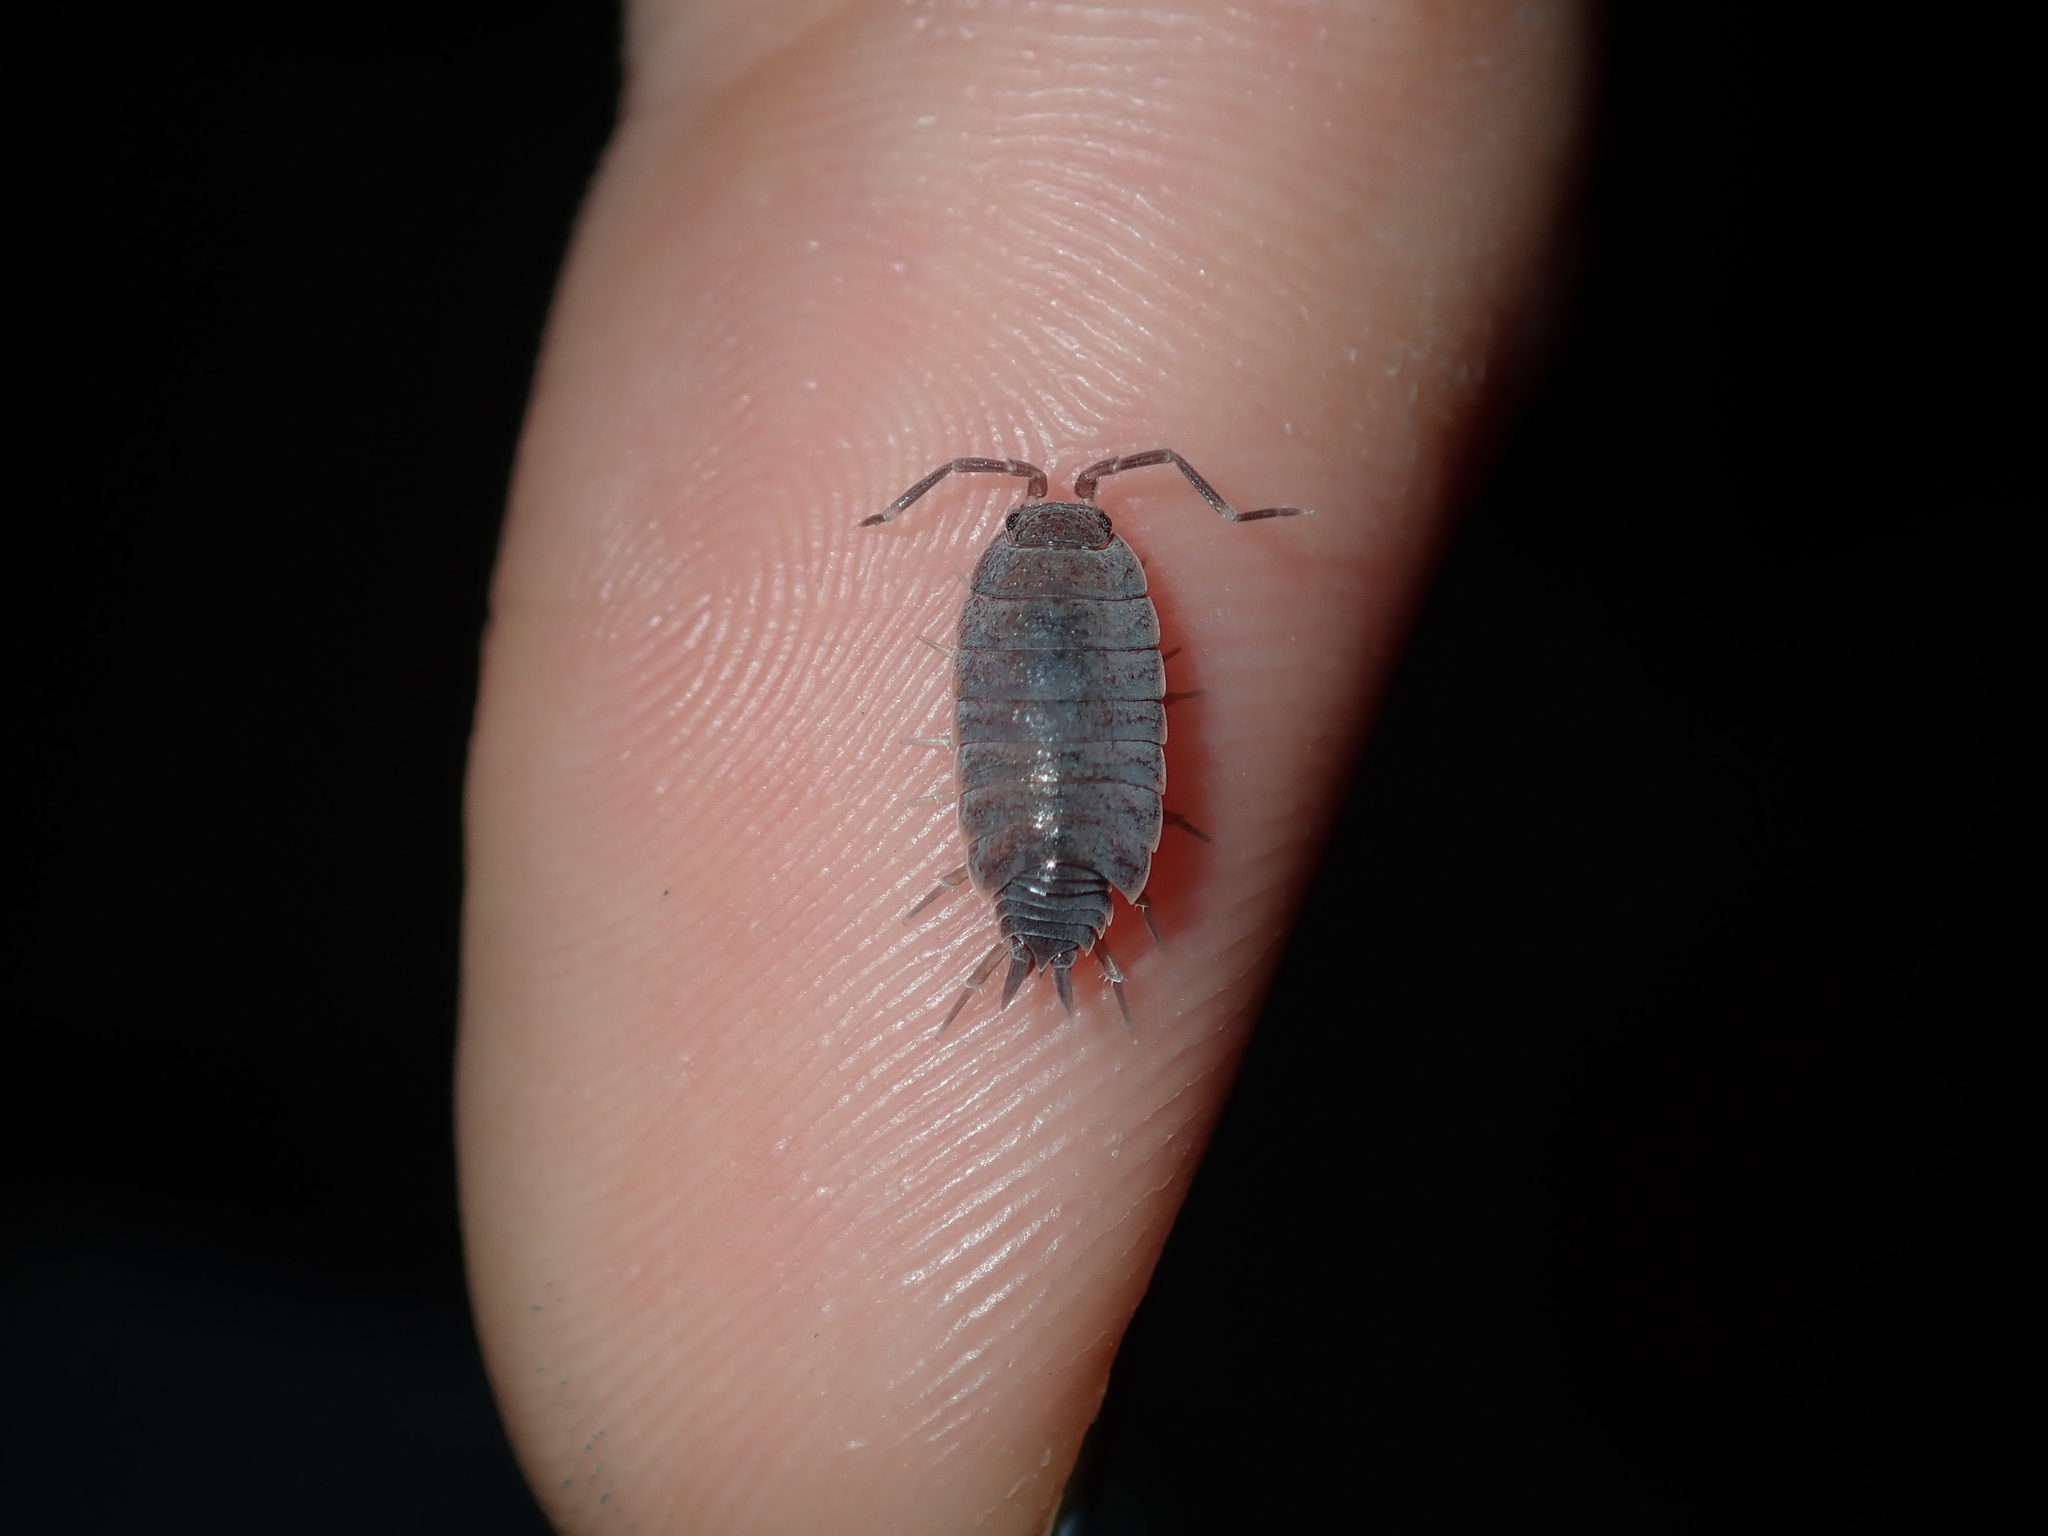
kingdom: Animalia
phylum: Arthropoda
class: Malacostraca
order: Isopoda
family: Porcellionidae
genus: Porcellionides
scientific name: Porcellionides pruinosus
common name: Plum woodlouse
